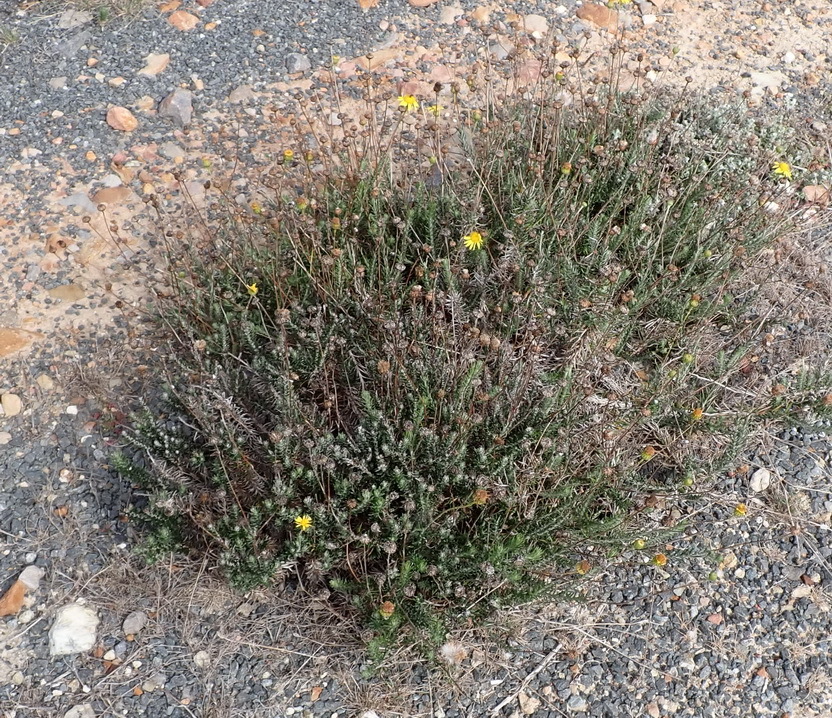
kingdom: Plantae
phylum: Tracheophyta
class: Magnoliopsida
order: Asterales
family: Asteraceae
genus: Senecio
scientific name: Senecio pillansii
